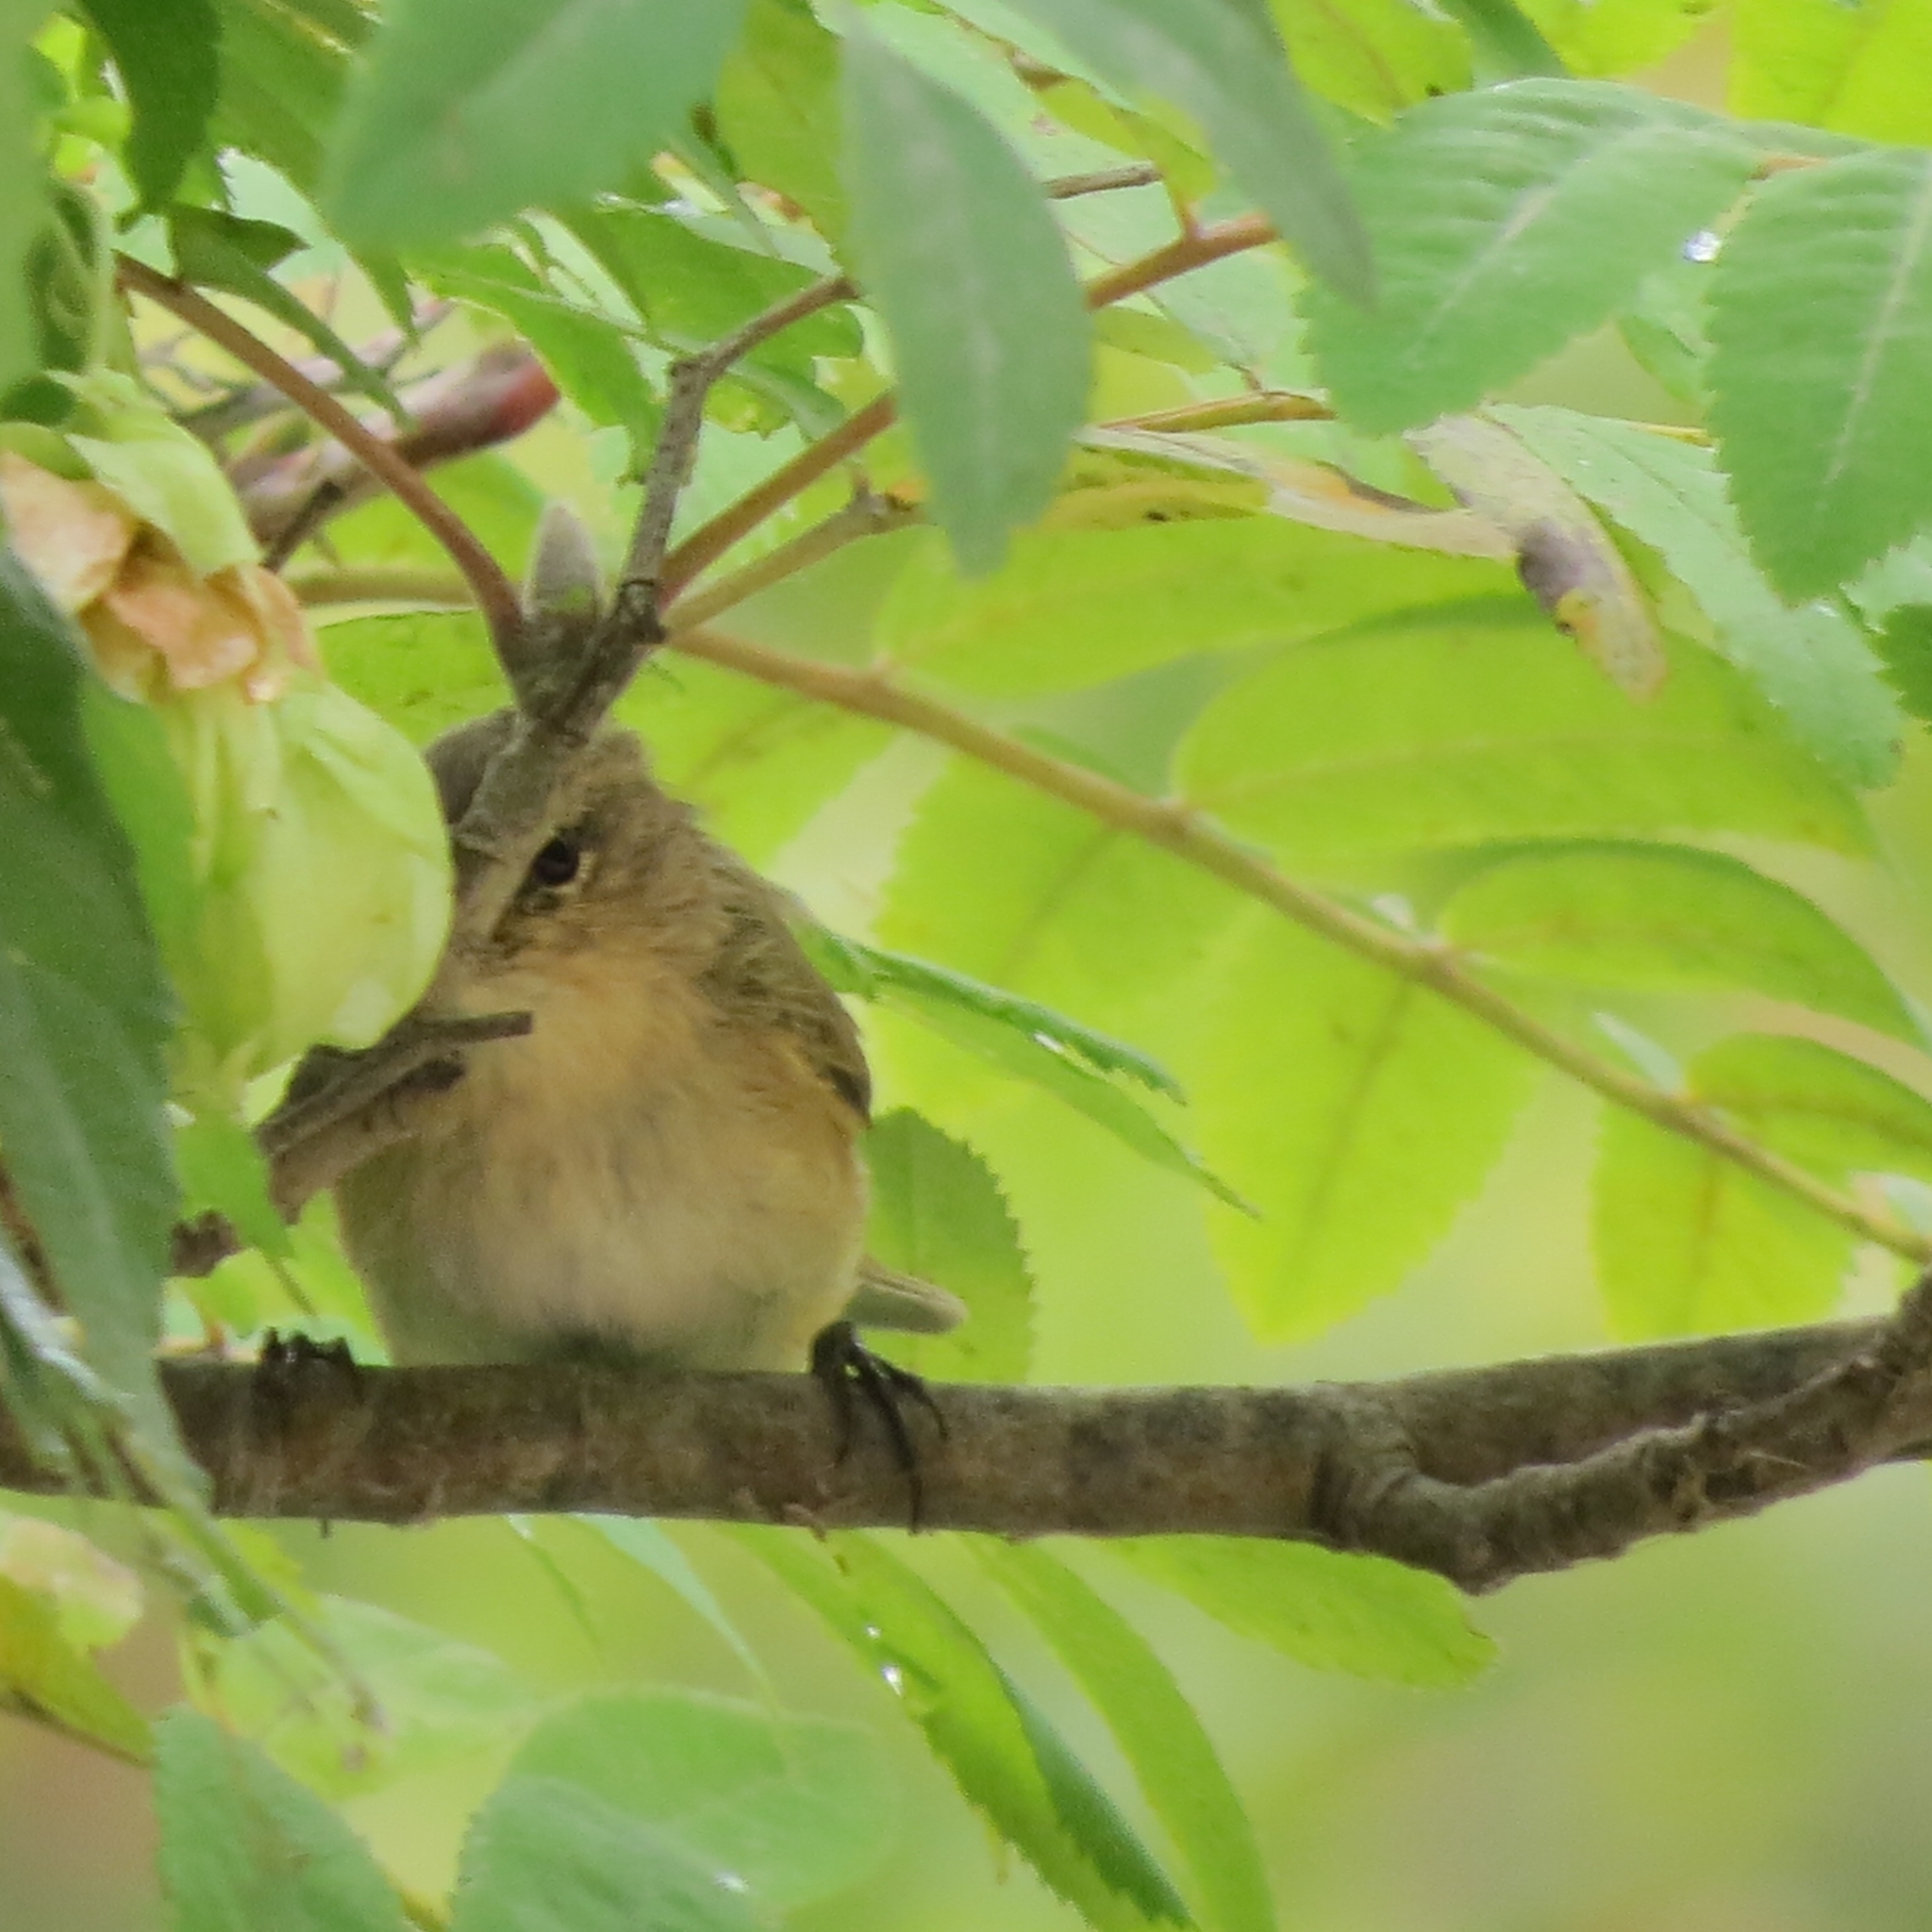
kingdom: Animalia
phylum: Chordata
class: Aves
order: Passeriformes
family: Phylloscopidae
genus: Phylloscopus
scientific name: Phylloscopus collybita
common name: Common chiffchaff
